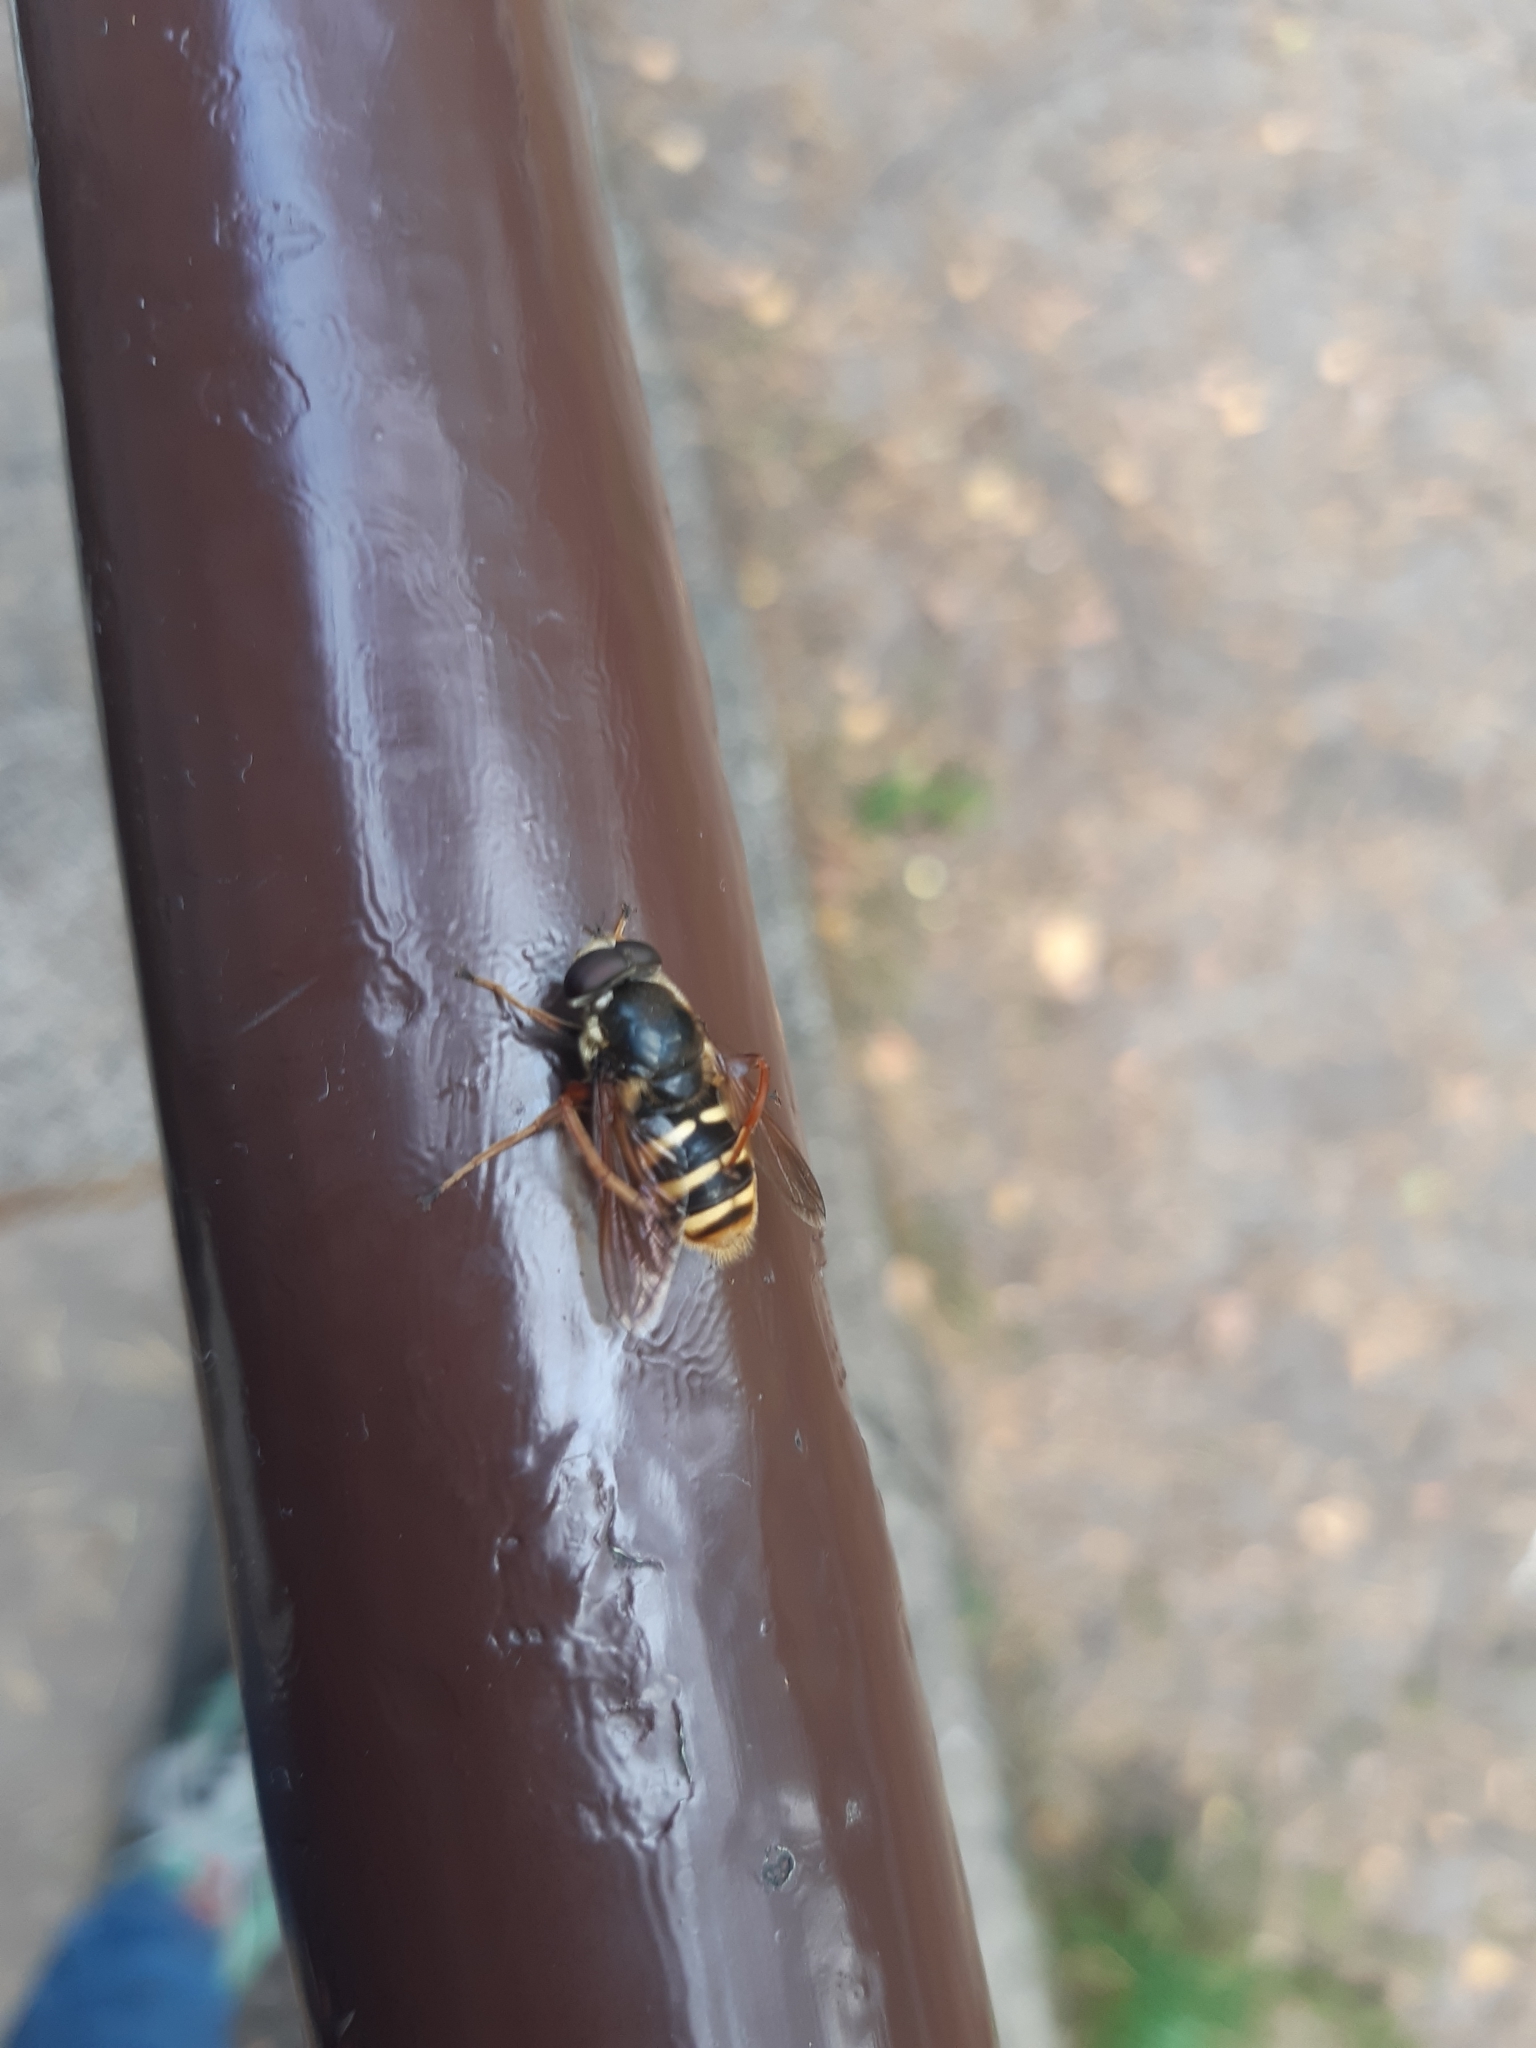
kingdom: Animalia
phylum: Arthropoda
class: Insecta
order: Diptera
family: Syrphidae
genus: Sericomyia
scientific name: Sericomyia silentis
